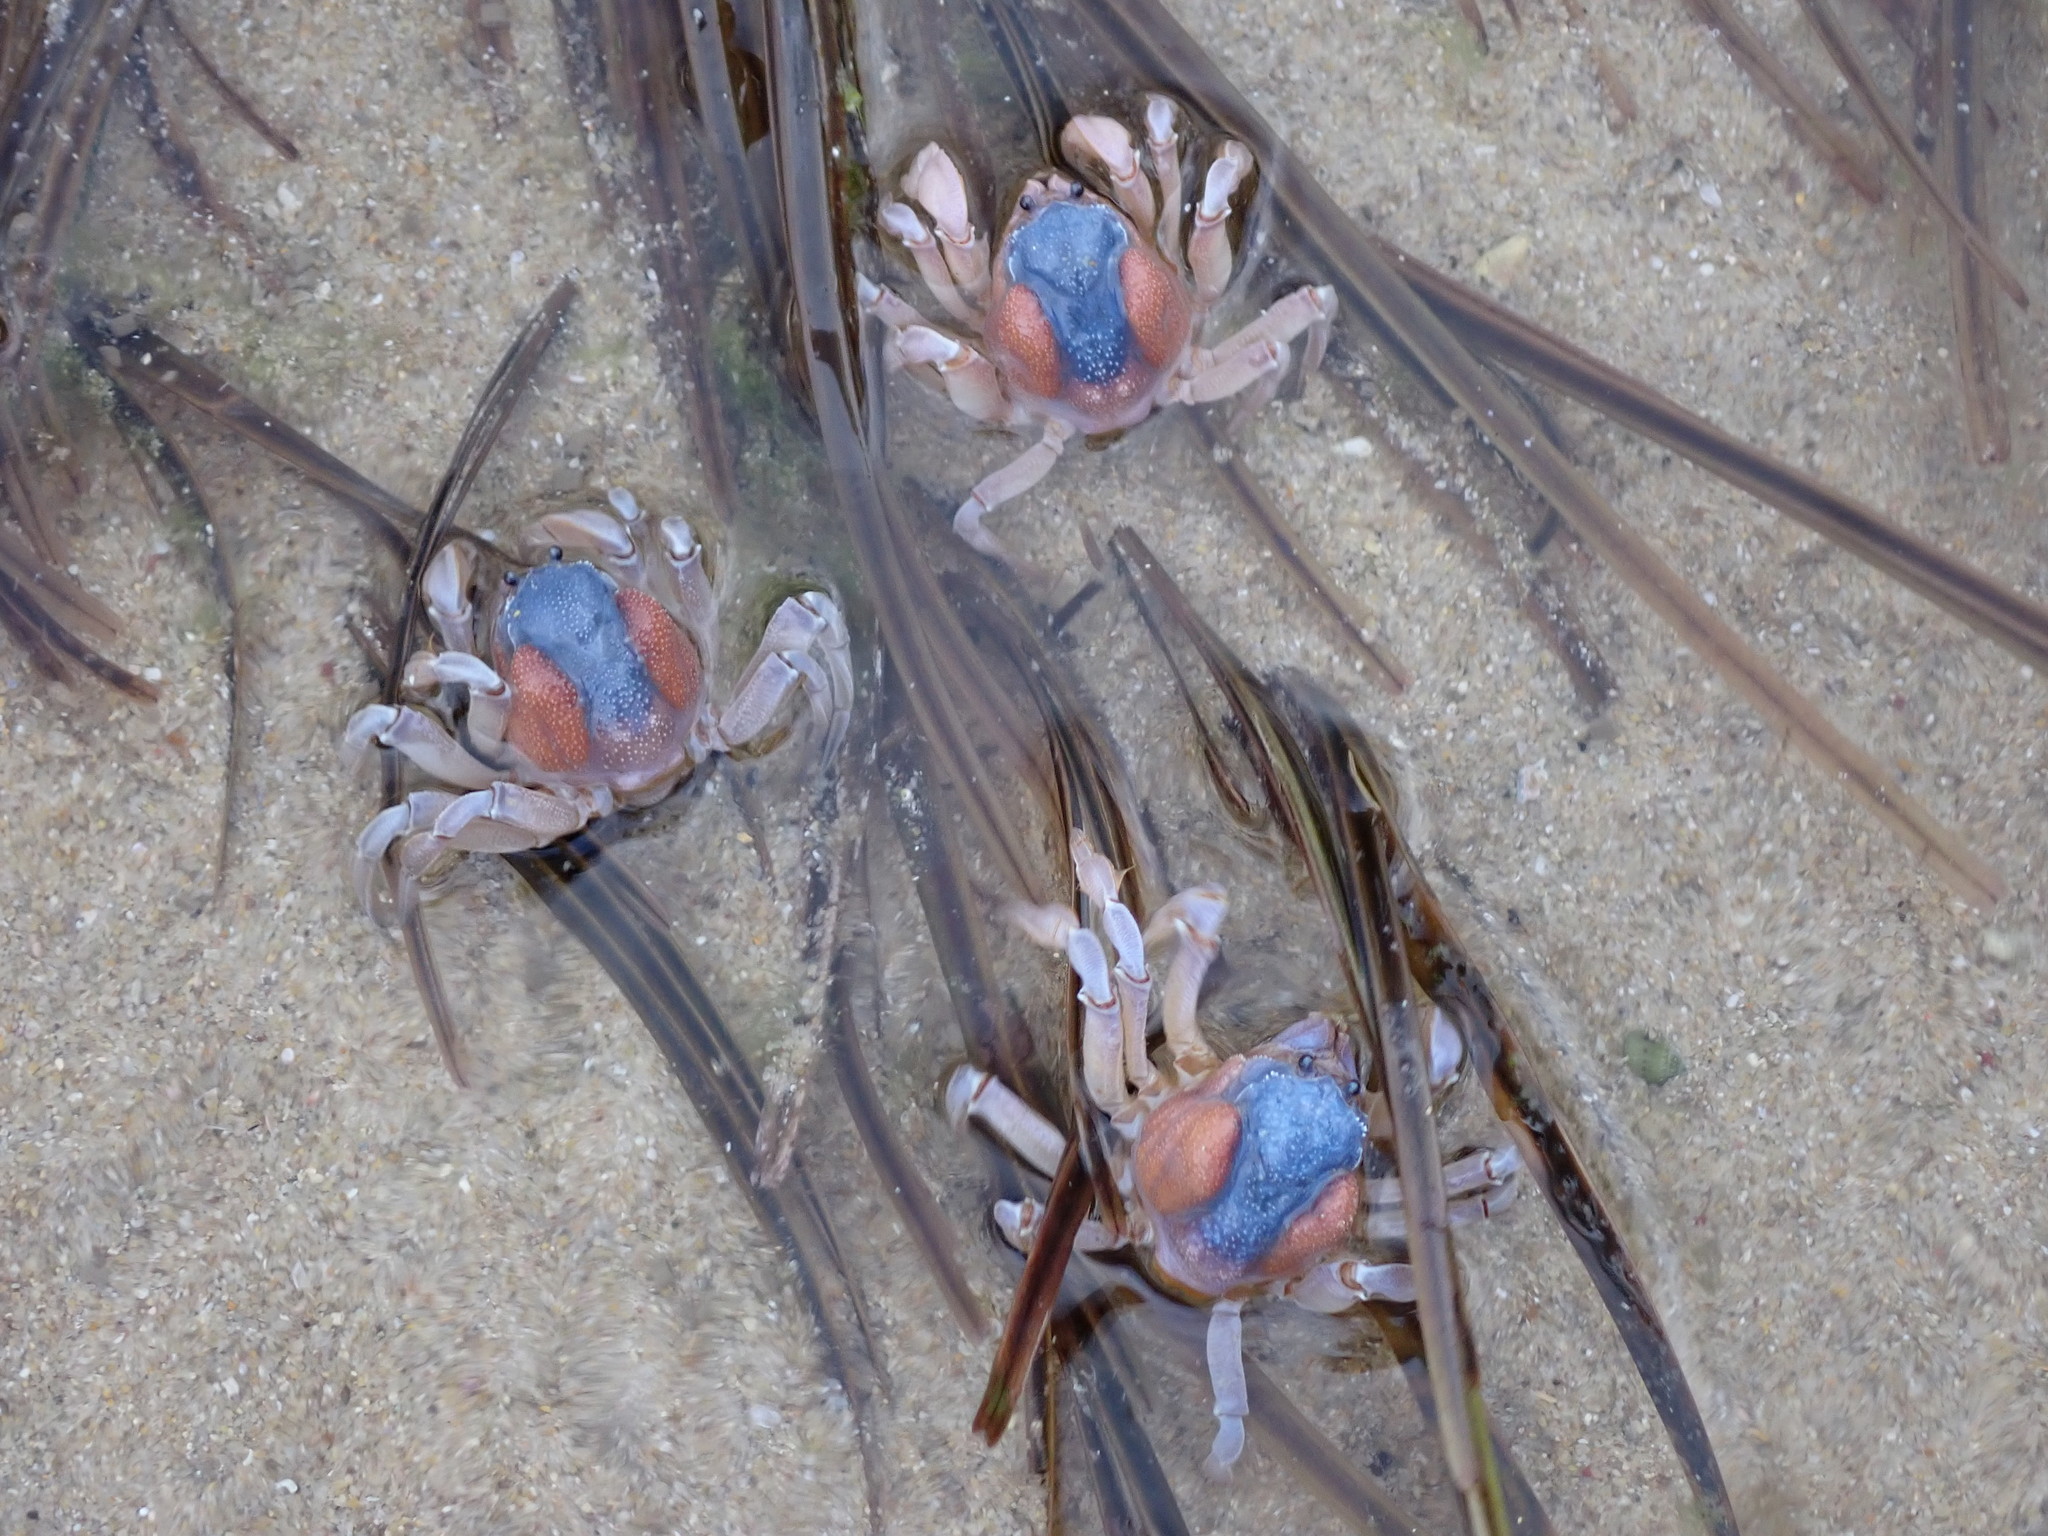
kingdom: Animalia
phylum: Arthropoda
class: Malacostraca
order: Decapoda
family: Mictyridae
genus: Mictyris
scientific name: Mictyris platycheles
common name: Dark blue soldier crab
